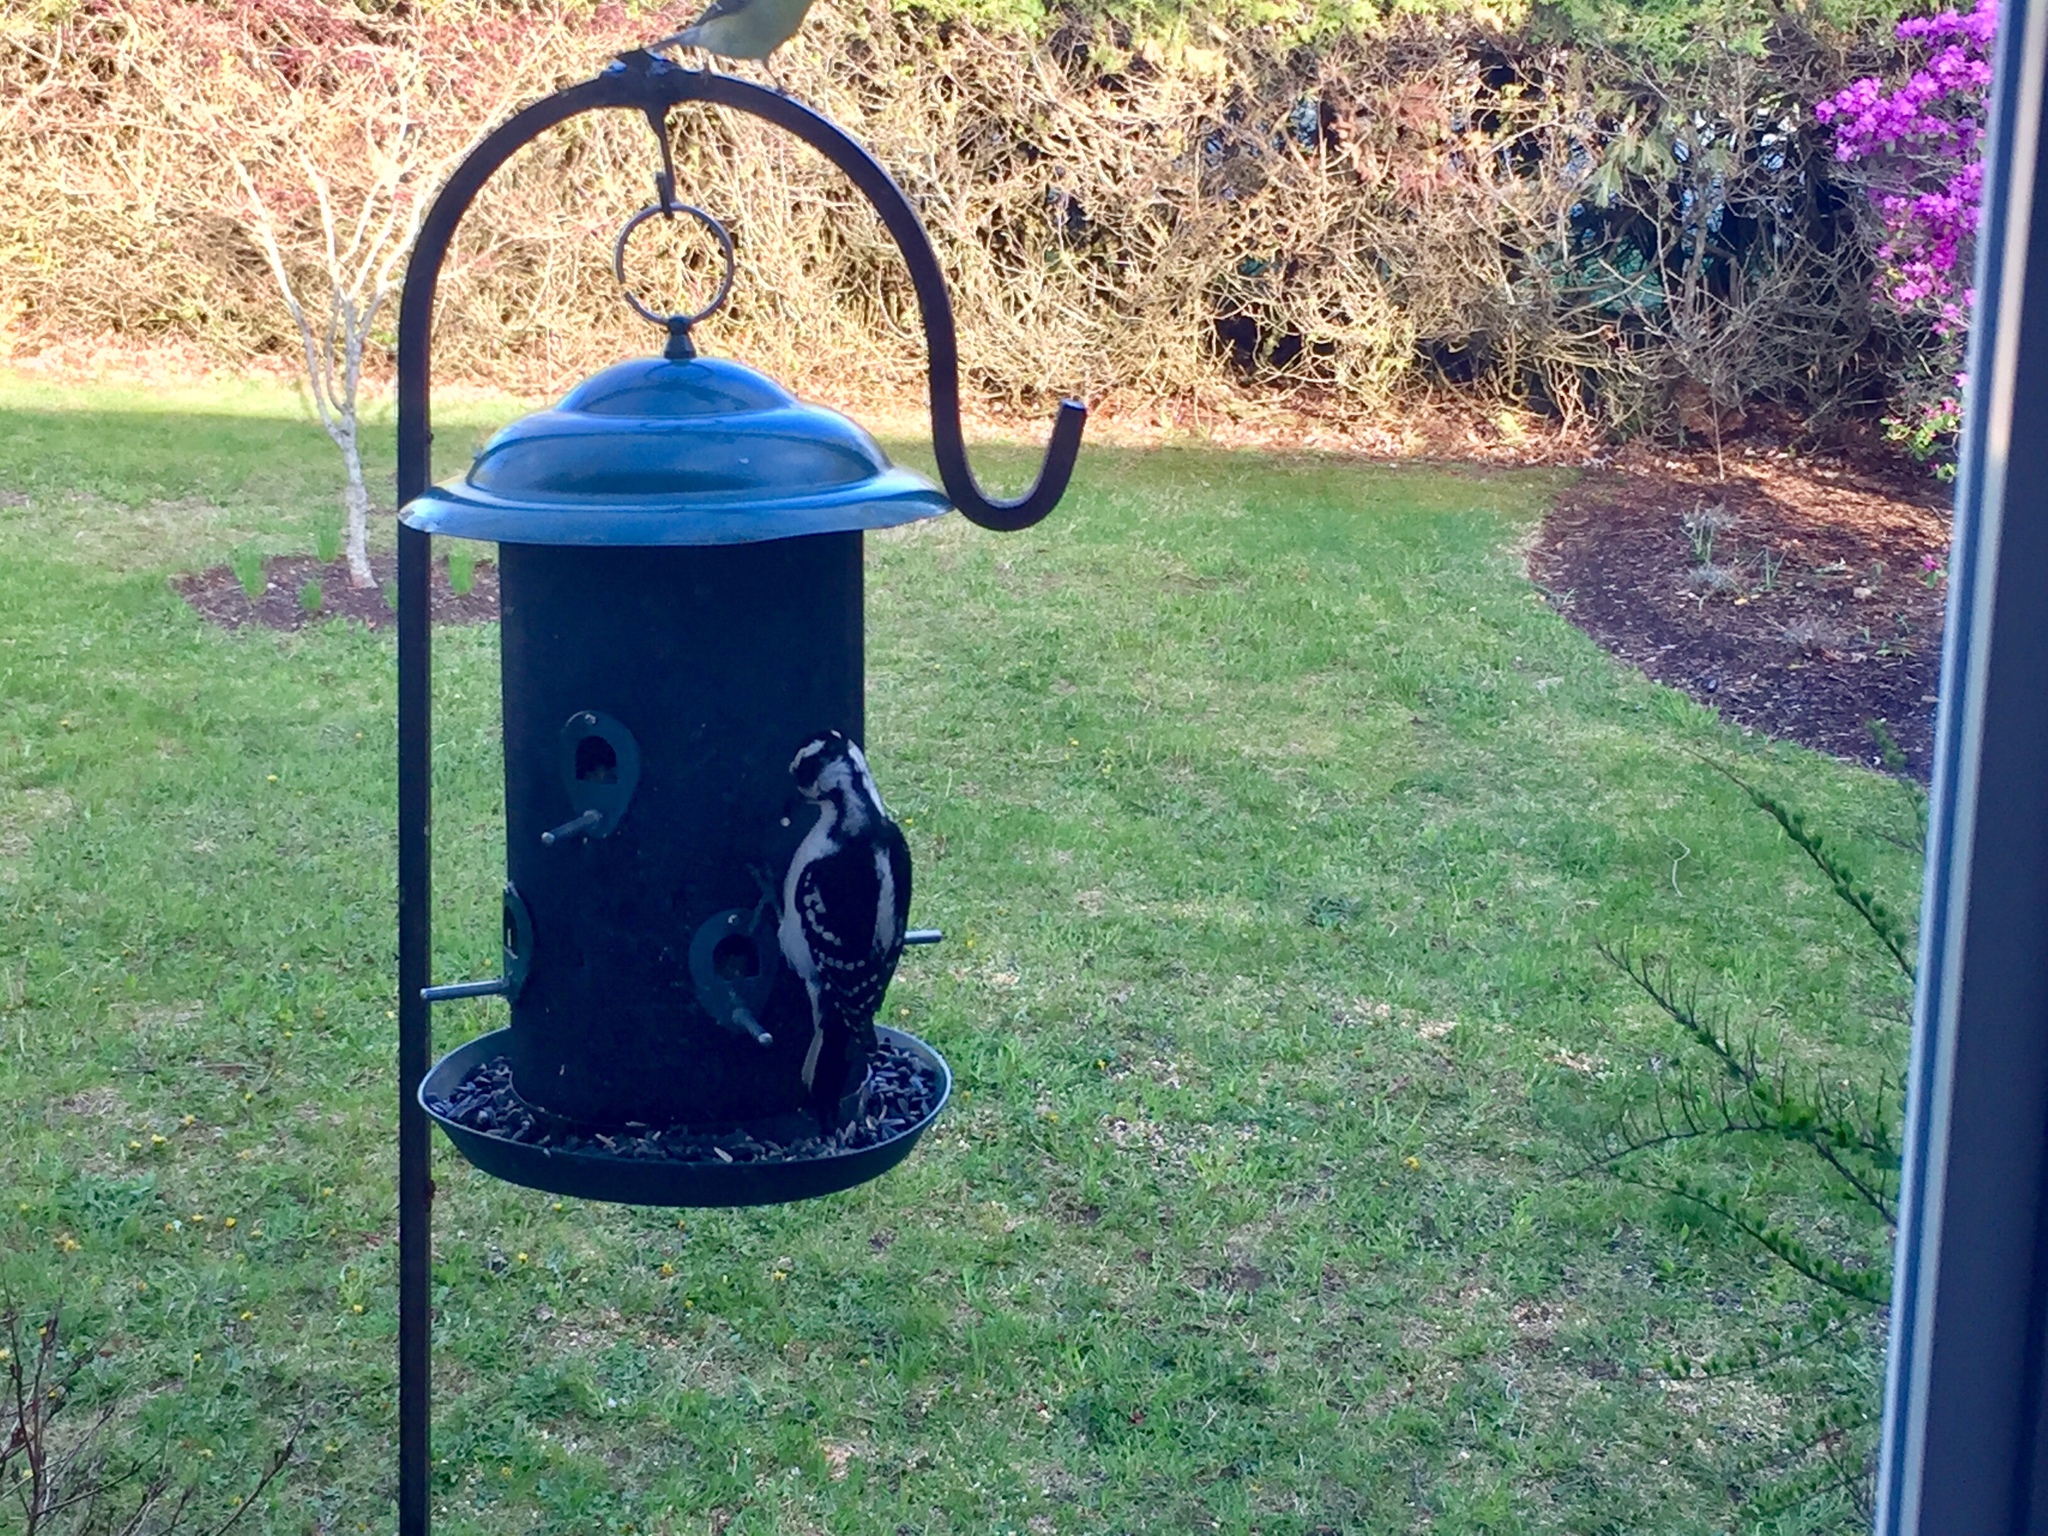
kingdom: Animalia
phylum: Chordata
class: Aves
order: Piciformes
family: Picidae
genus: Leuconotopicus
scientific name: Leuconotopicus villosus
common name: Hairy woodpecker
